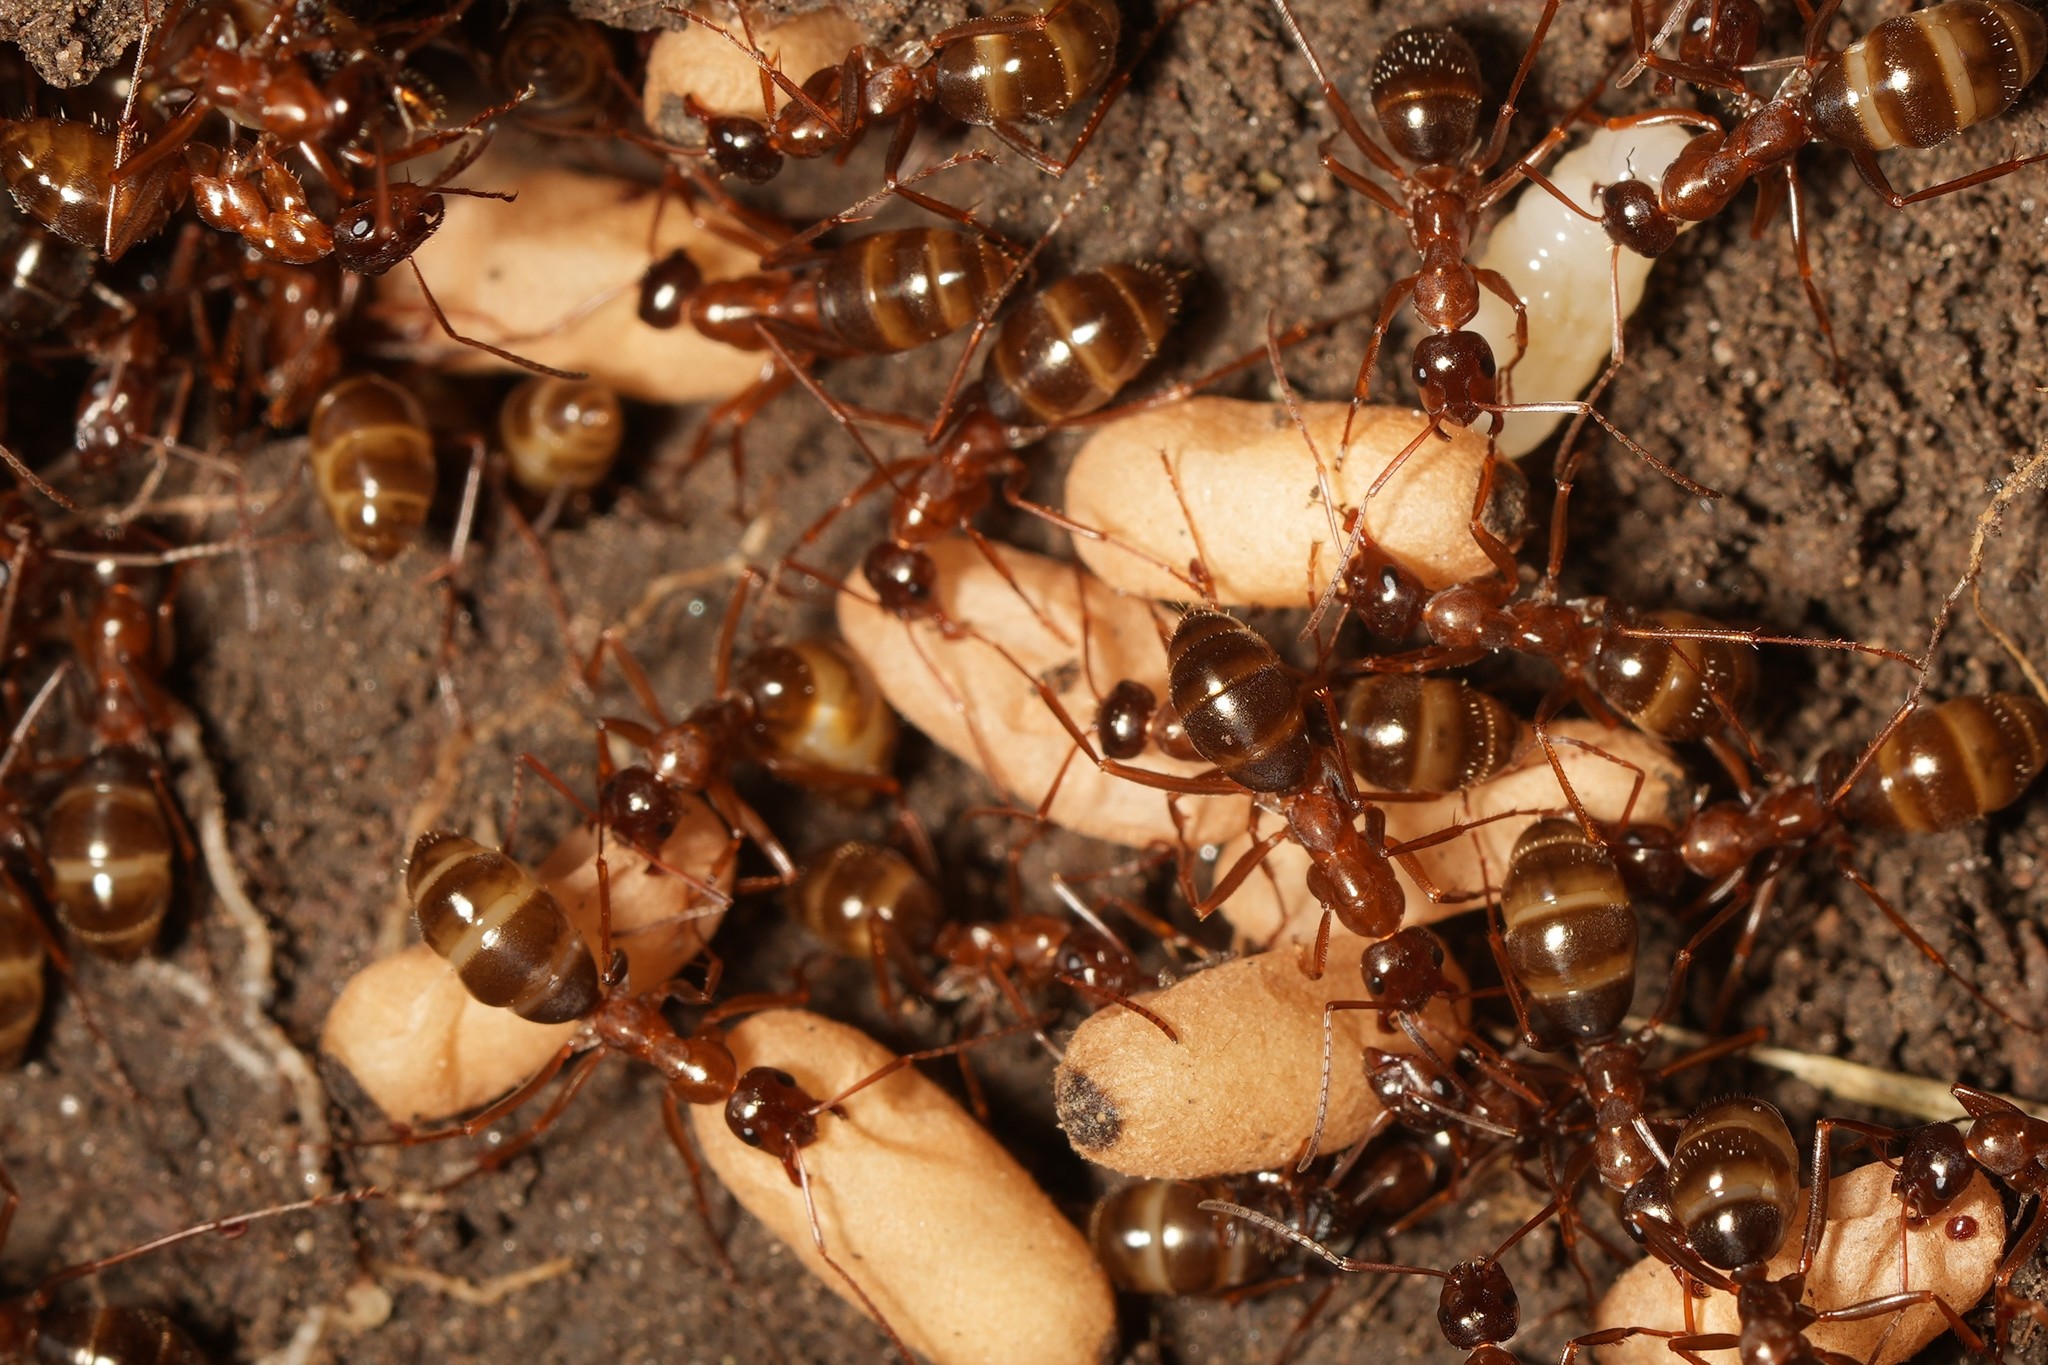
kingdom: Animalia
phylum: Arthropoda
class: Insecta
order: Hymenoptera
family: Formicidae
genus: Formica
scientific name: Formica pallidefulva
